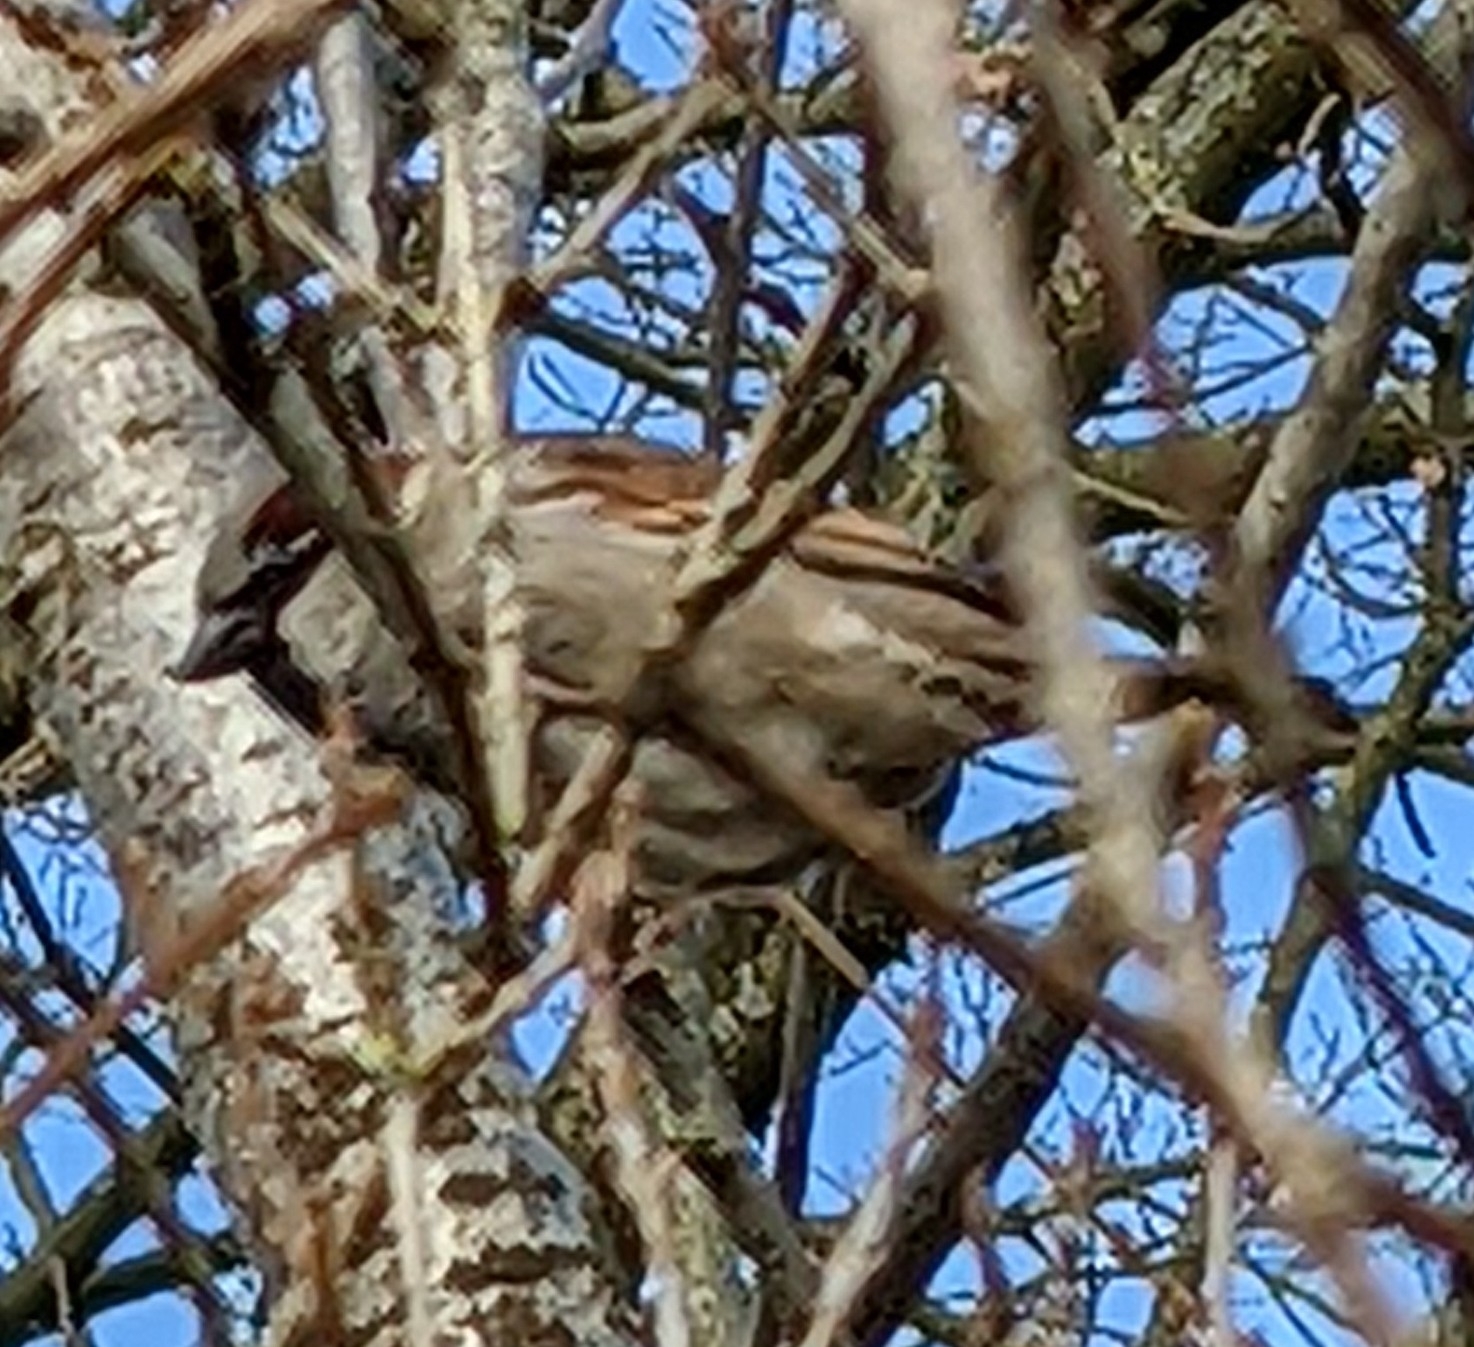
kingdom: Animalia
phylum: Chordata
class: Aves
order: Passeriformes
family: Passeridae
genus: Passer
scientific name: Passer domesticus
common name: House sparrow
